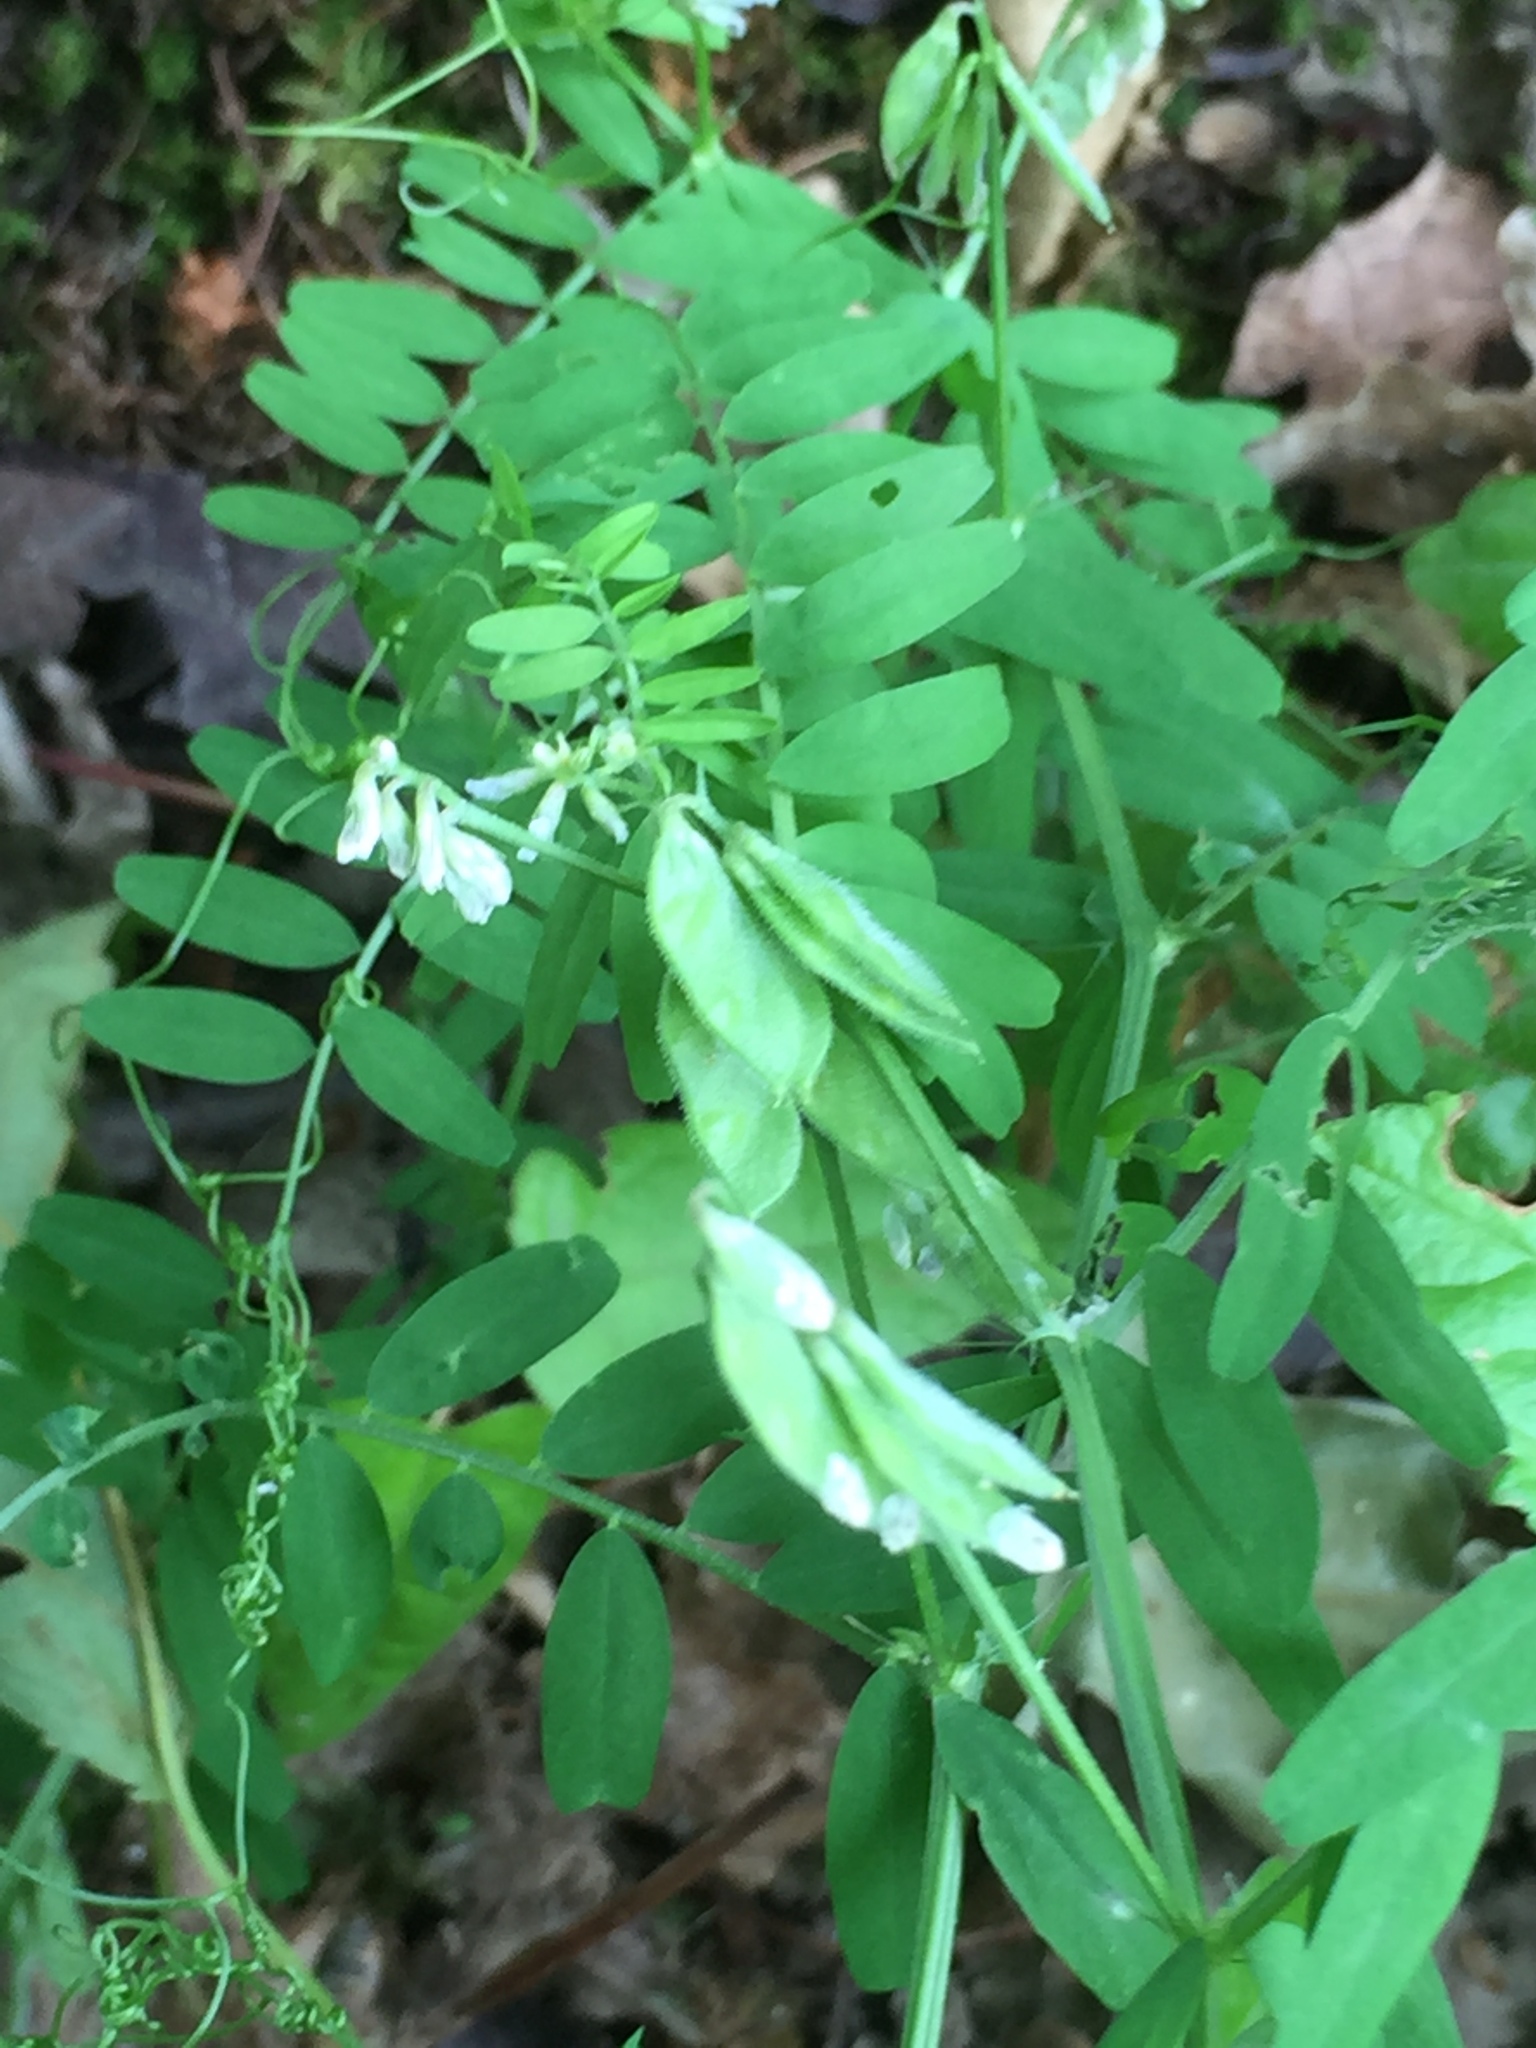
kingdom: Plantae
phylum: Tracheophyta
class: Magnoliopsida
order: Fabales
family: Fabaceae
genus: Vicia
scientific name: Vicia hirsuta
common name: Tiny vetch
